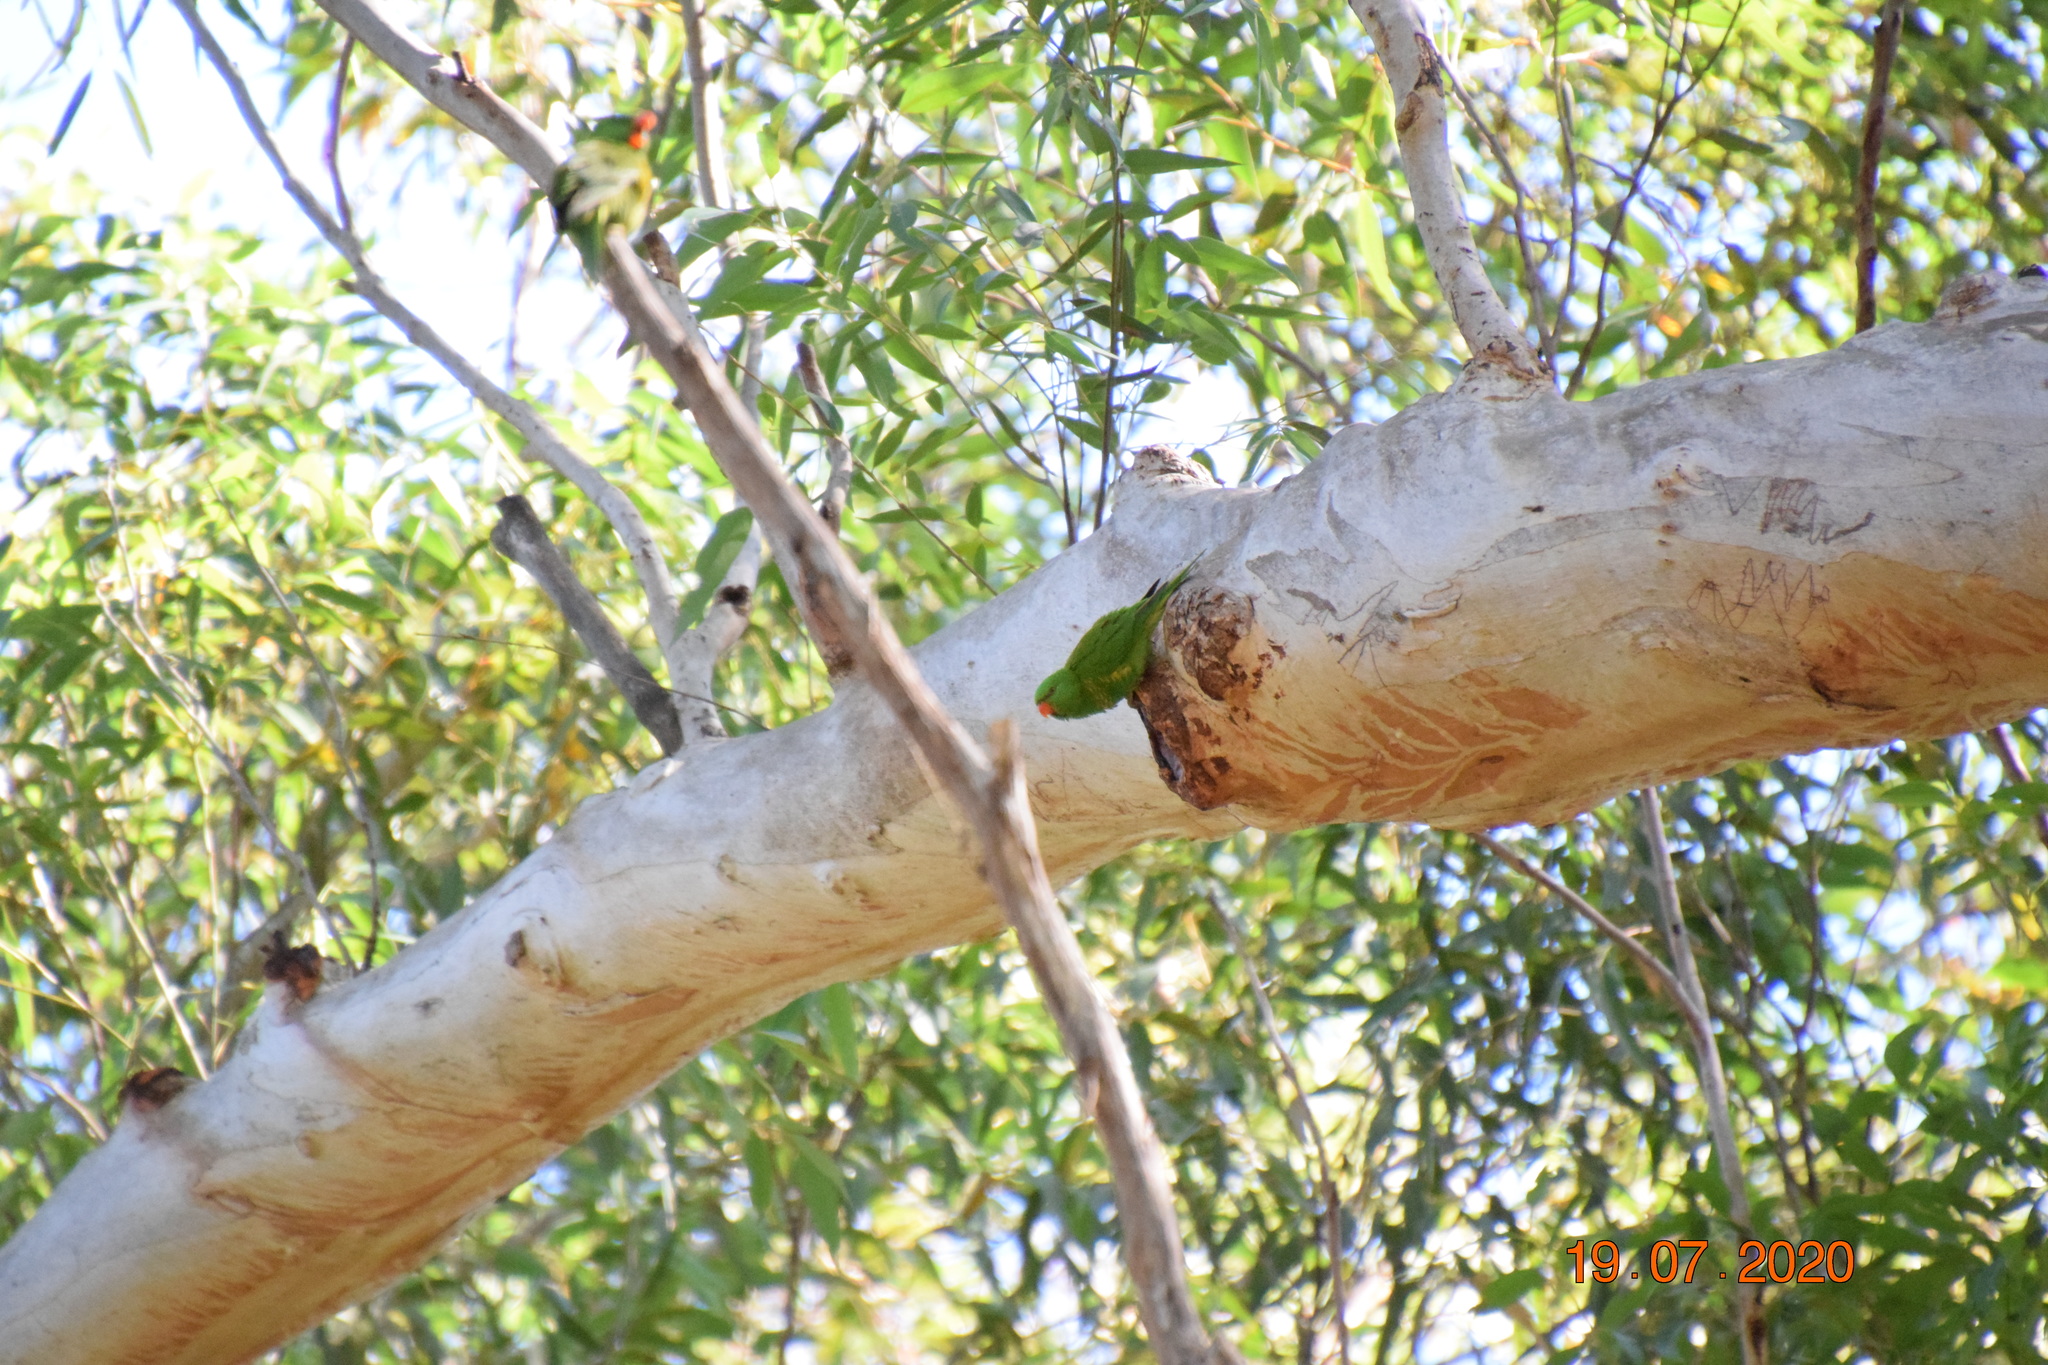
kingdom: Animalia
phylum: Chordata
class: Aves
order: Psittaciformes
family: Psittacidae
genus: Trichoglossus
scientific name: Trichoglossus chlorolepidotus
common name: Scaly-breasted lorikeet
